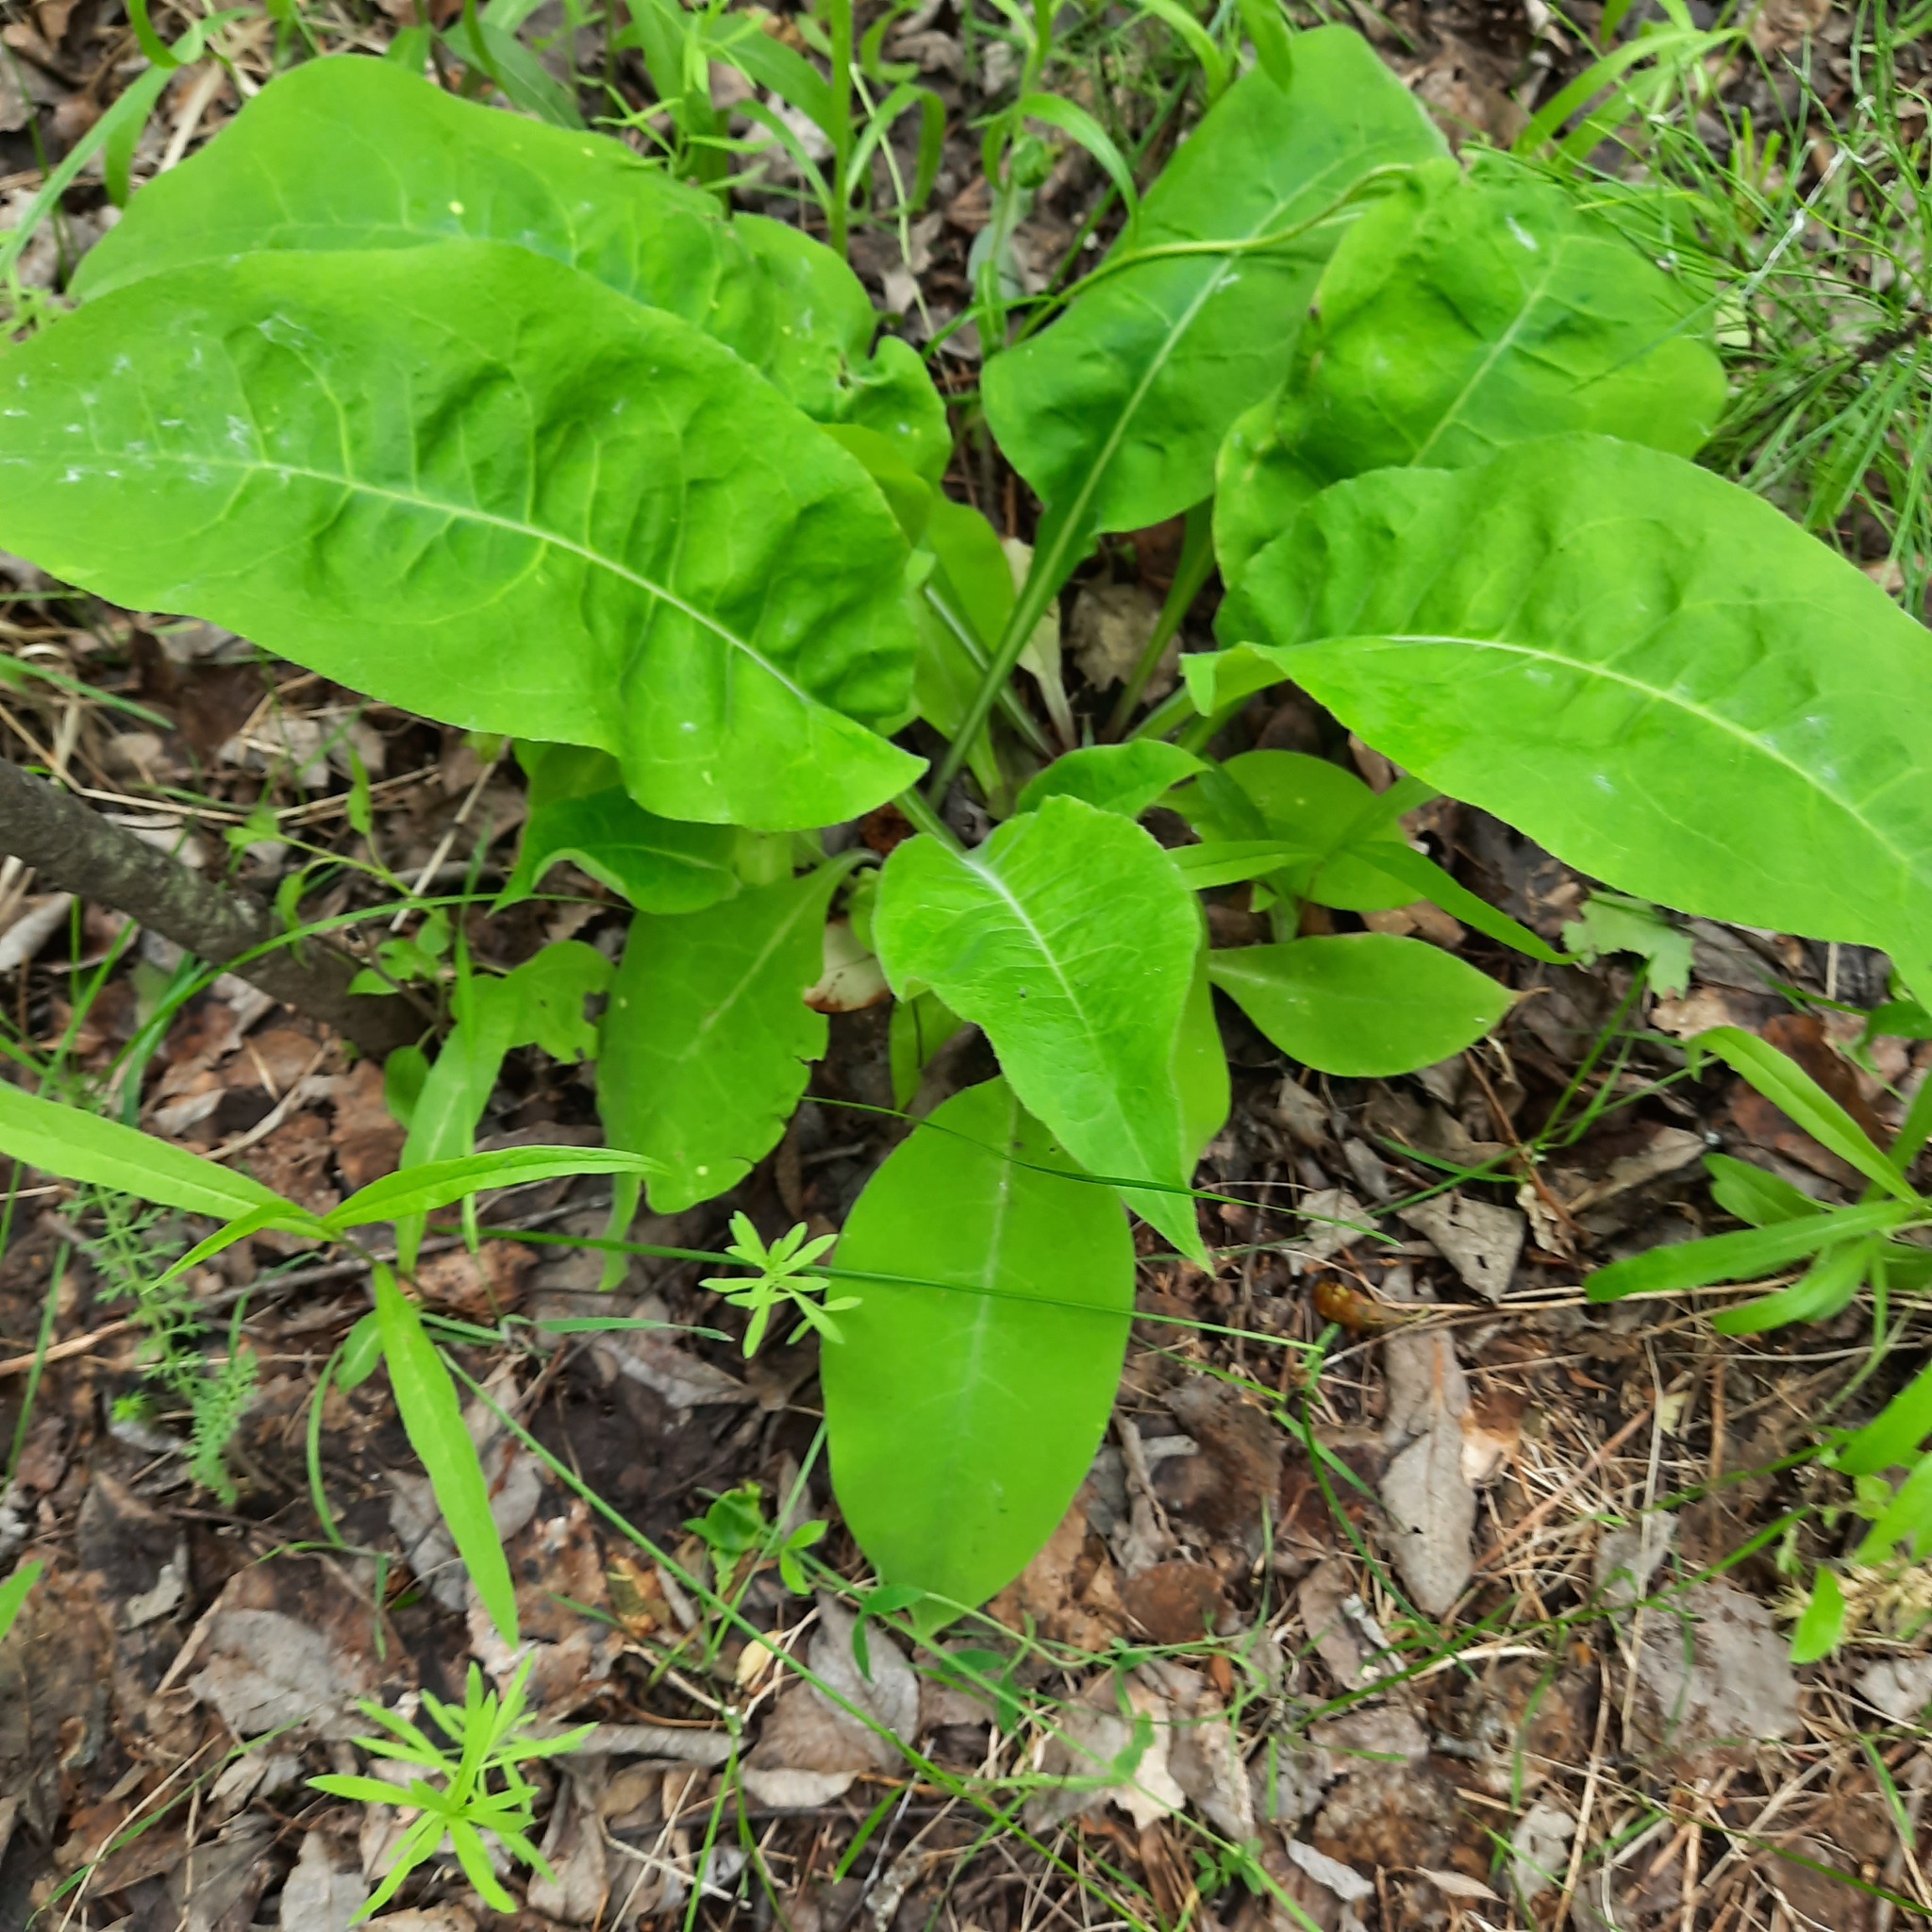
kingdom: Plantae
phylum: Tracheophyta
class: Magnoliopsida
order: Boraginales
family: Boraginaceae
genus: Pulmonaria
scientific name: Pulmonaria mollis
